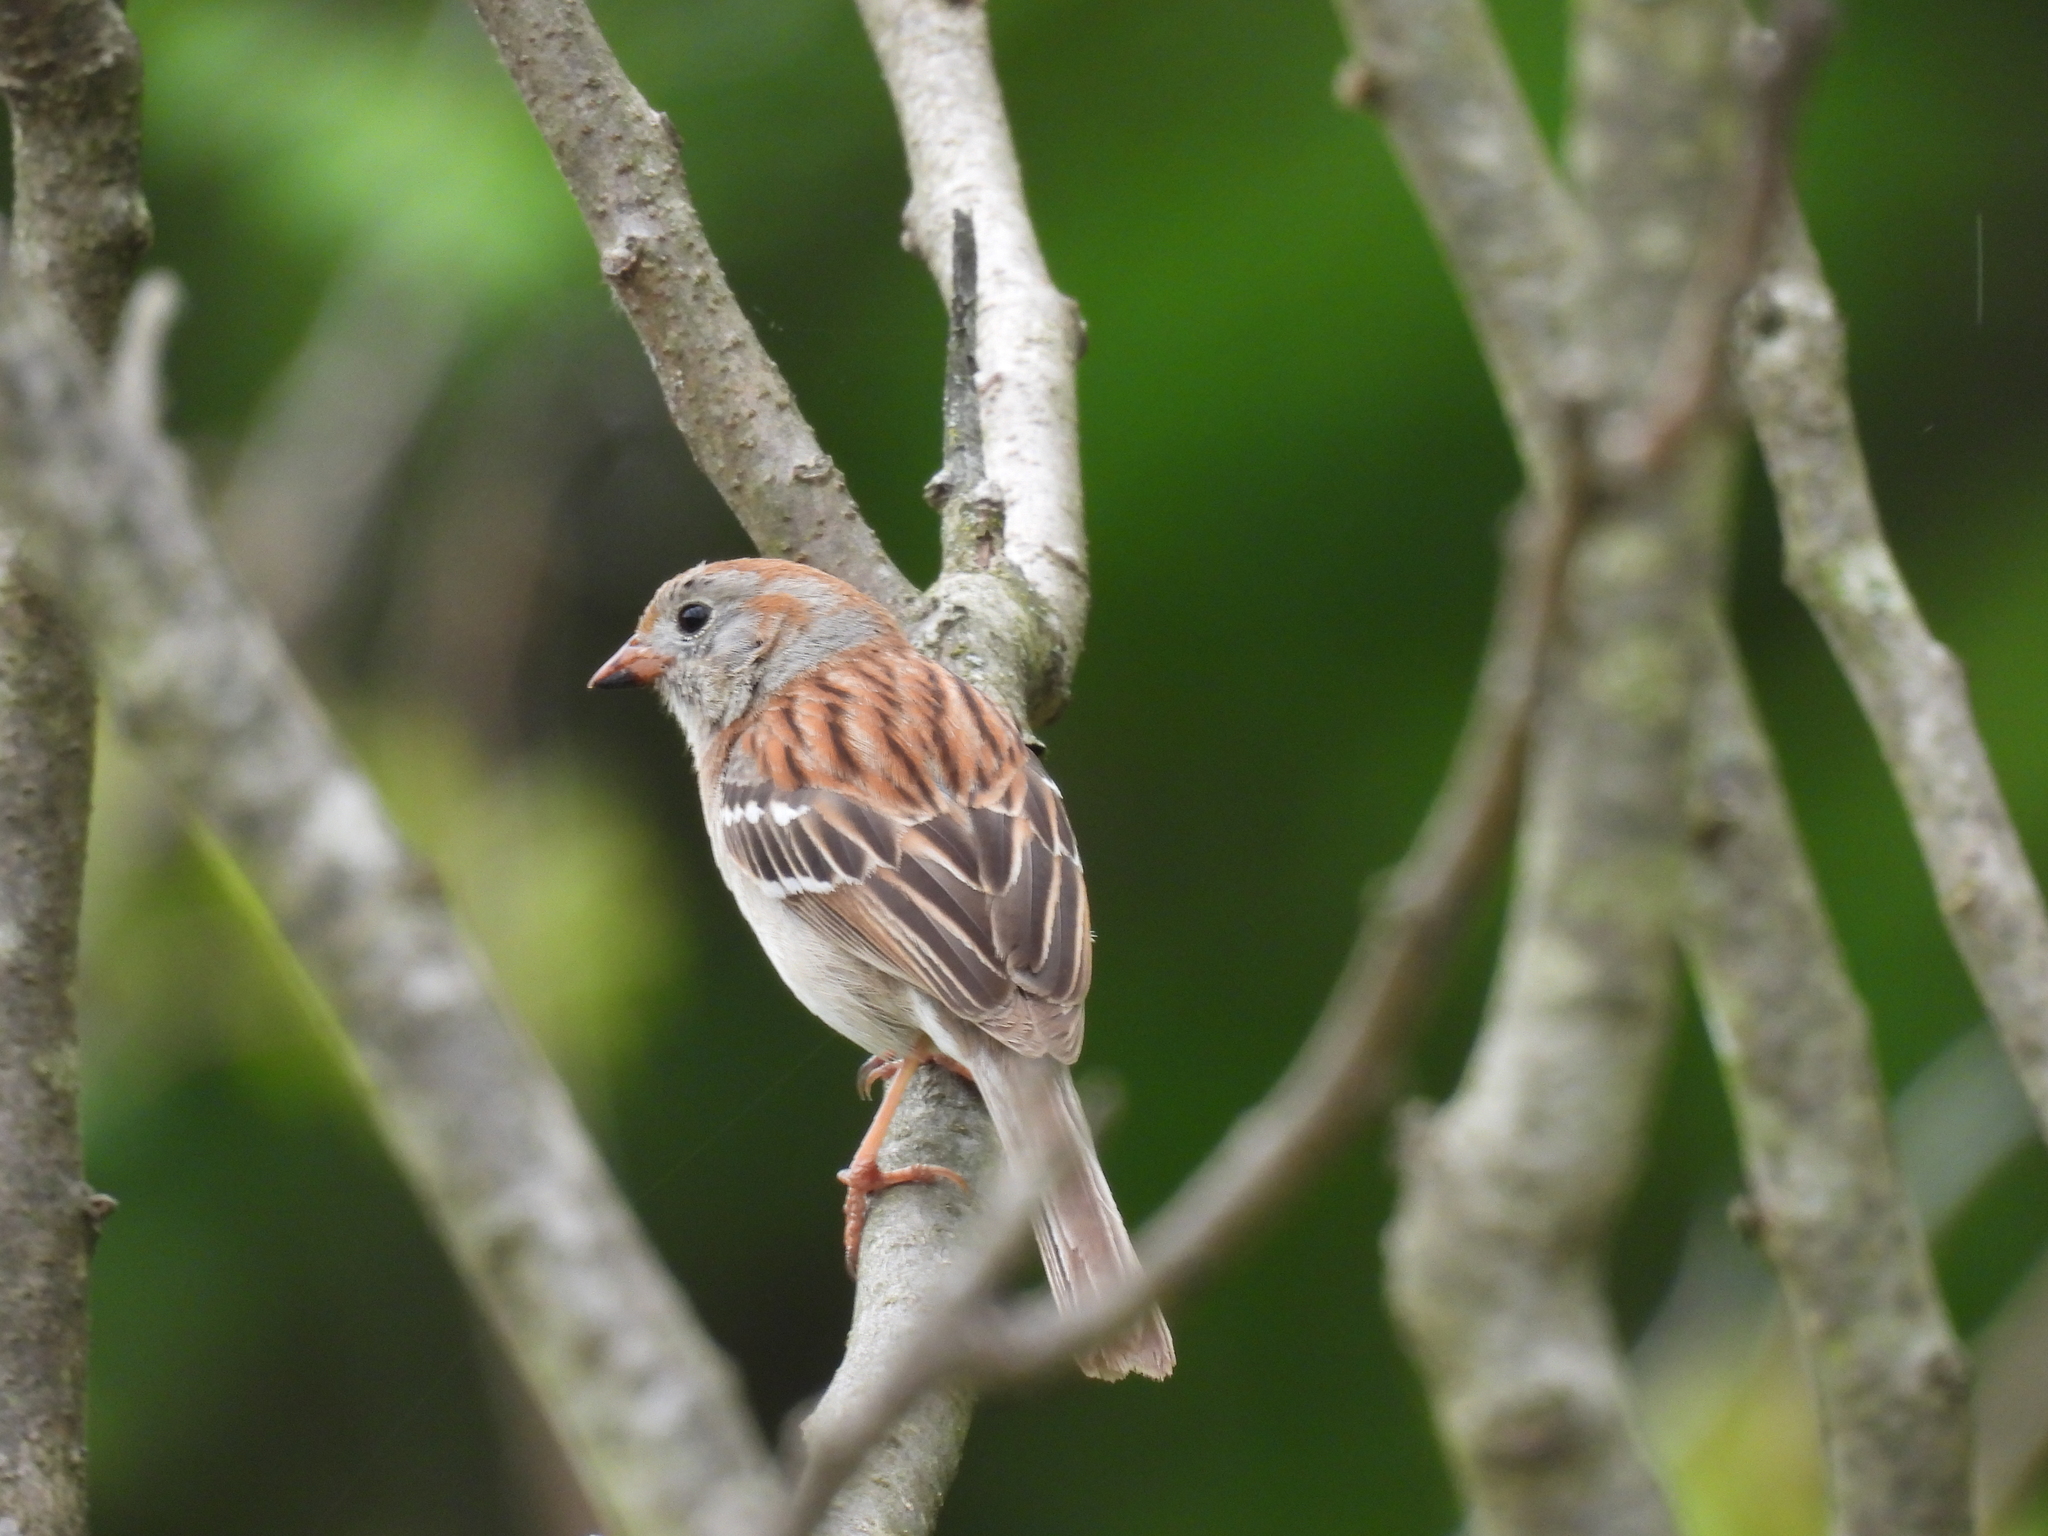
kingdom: Animalia
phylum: Chordata
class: Aves
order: Passeriformes
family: Passerellidae
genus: Spizella
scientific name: Spizella pusilla
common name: Field sparrow
